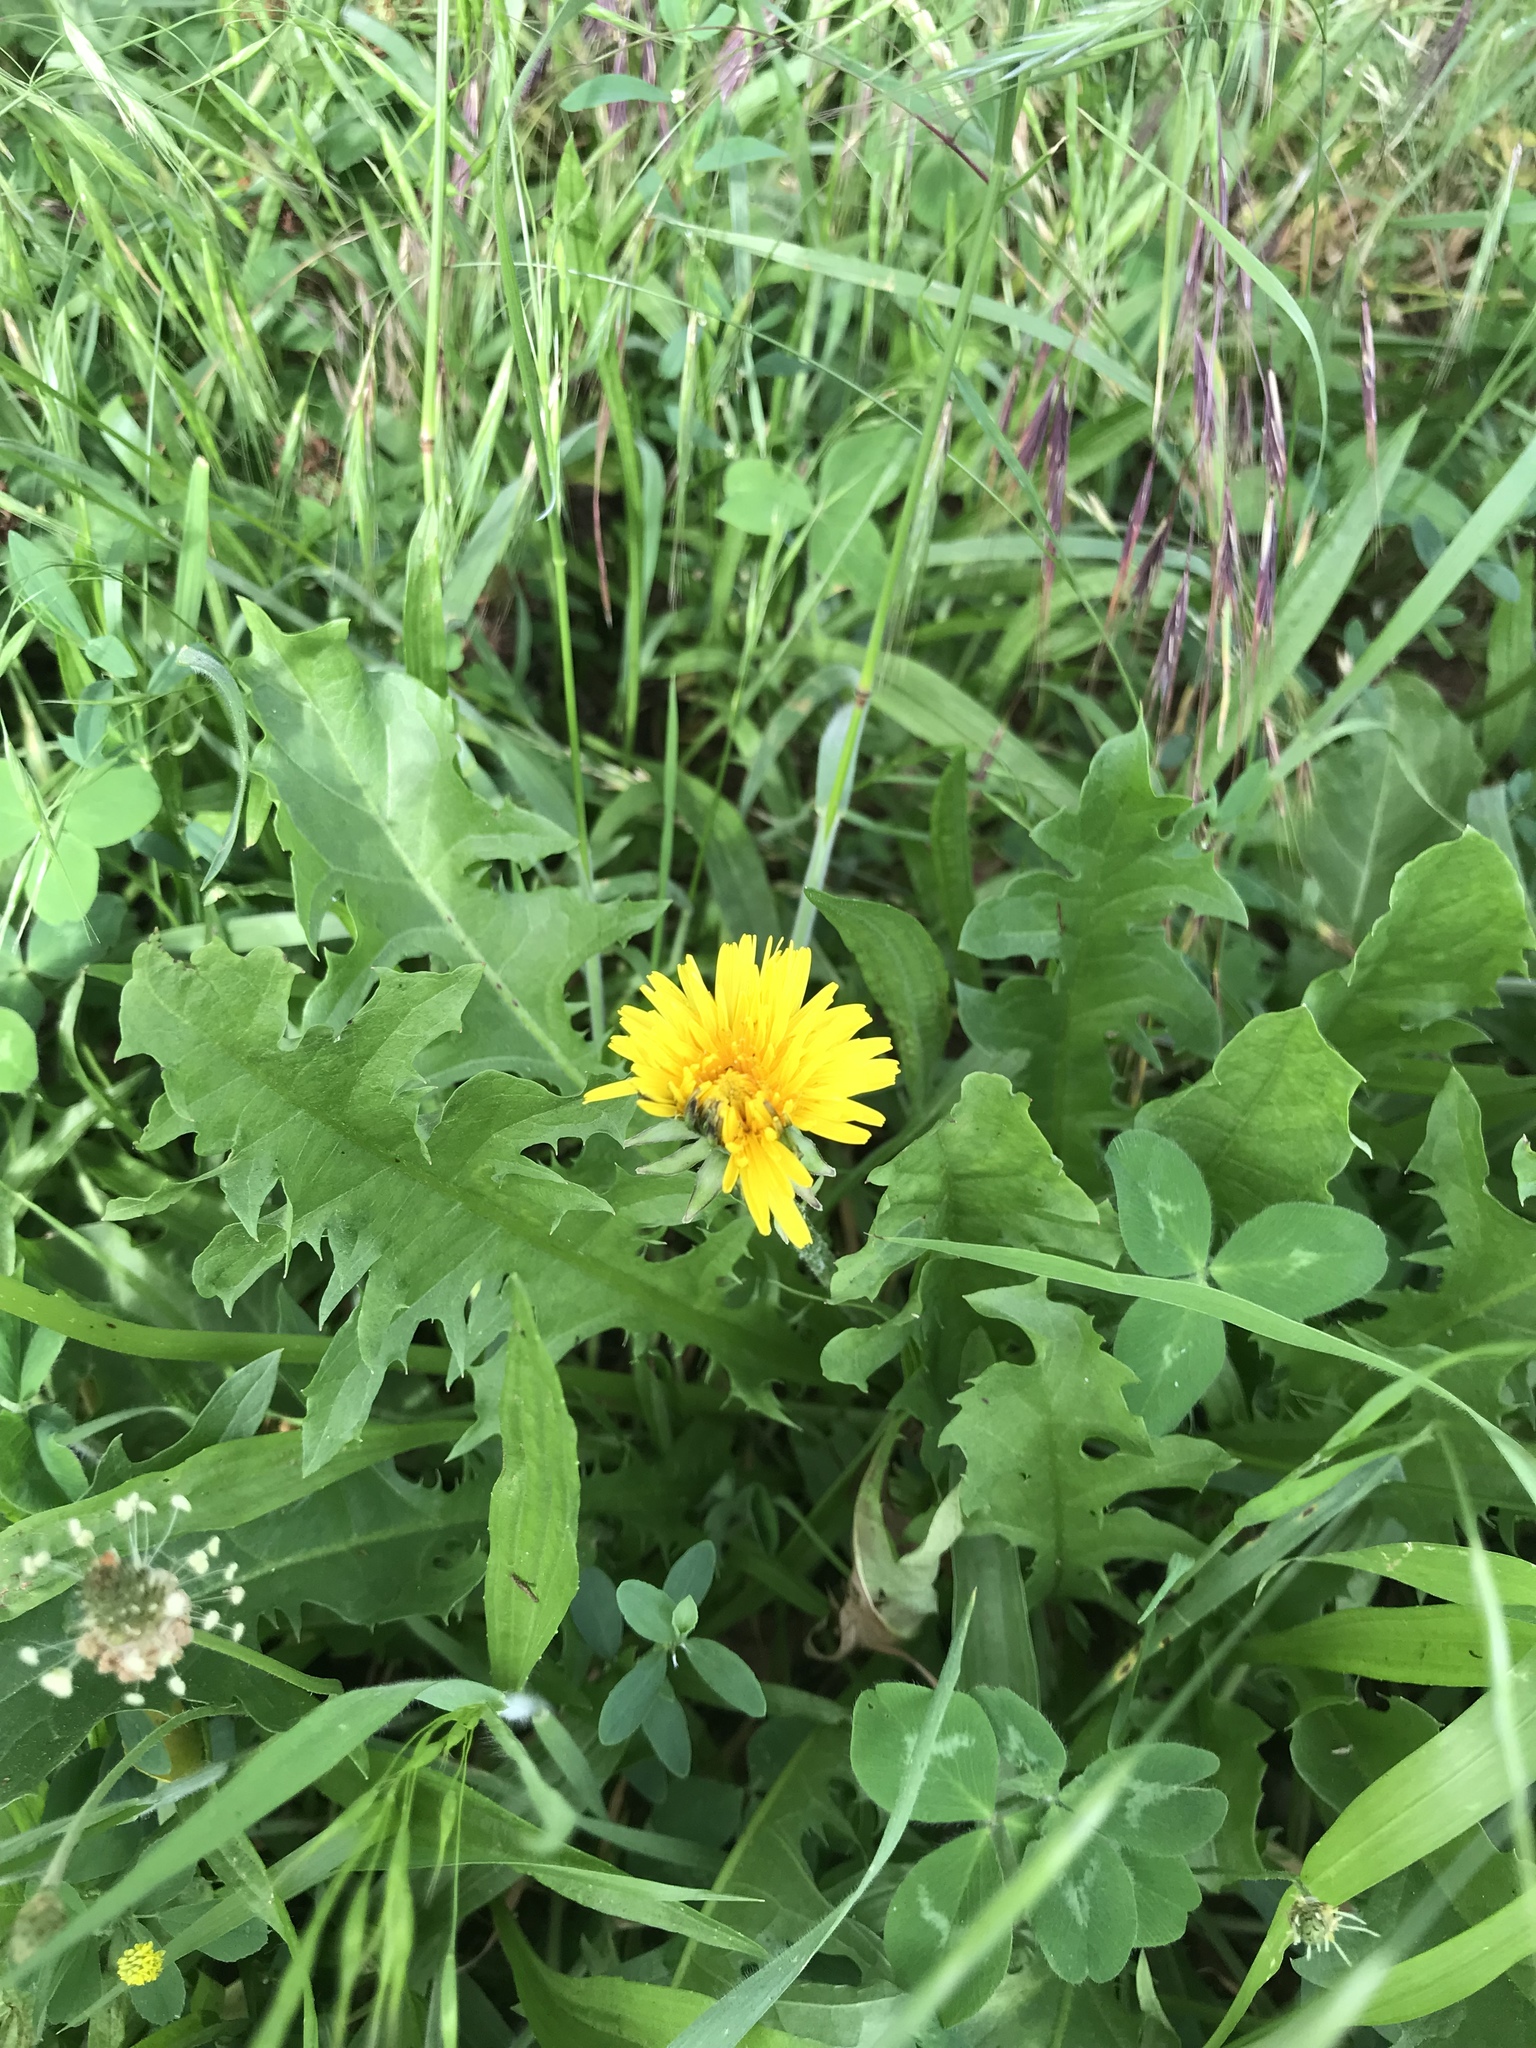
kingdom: Plantae
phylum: Tracheophyta
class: Magnoliopsida
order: Asterales
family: Asteraceae
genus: Taraxacum
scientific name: Taraxacum officinale
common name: Common dandelion
